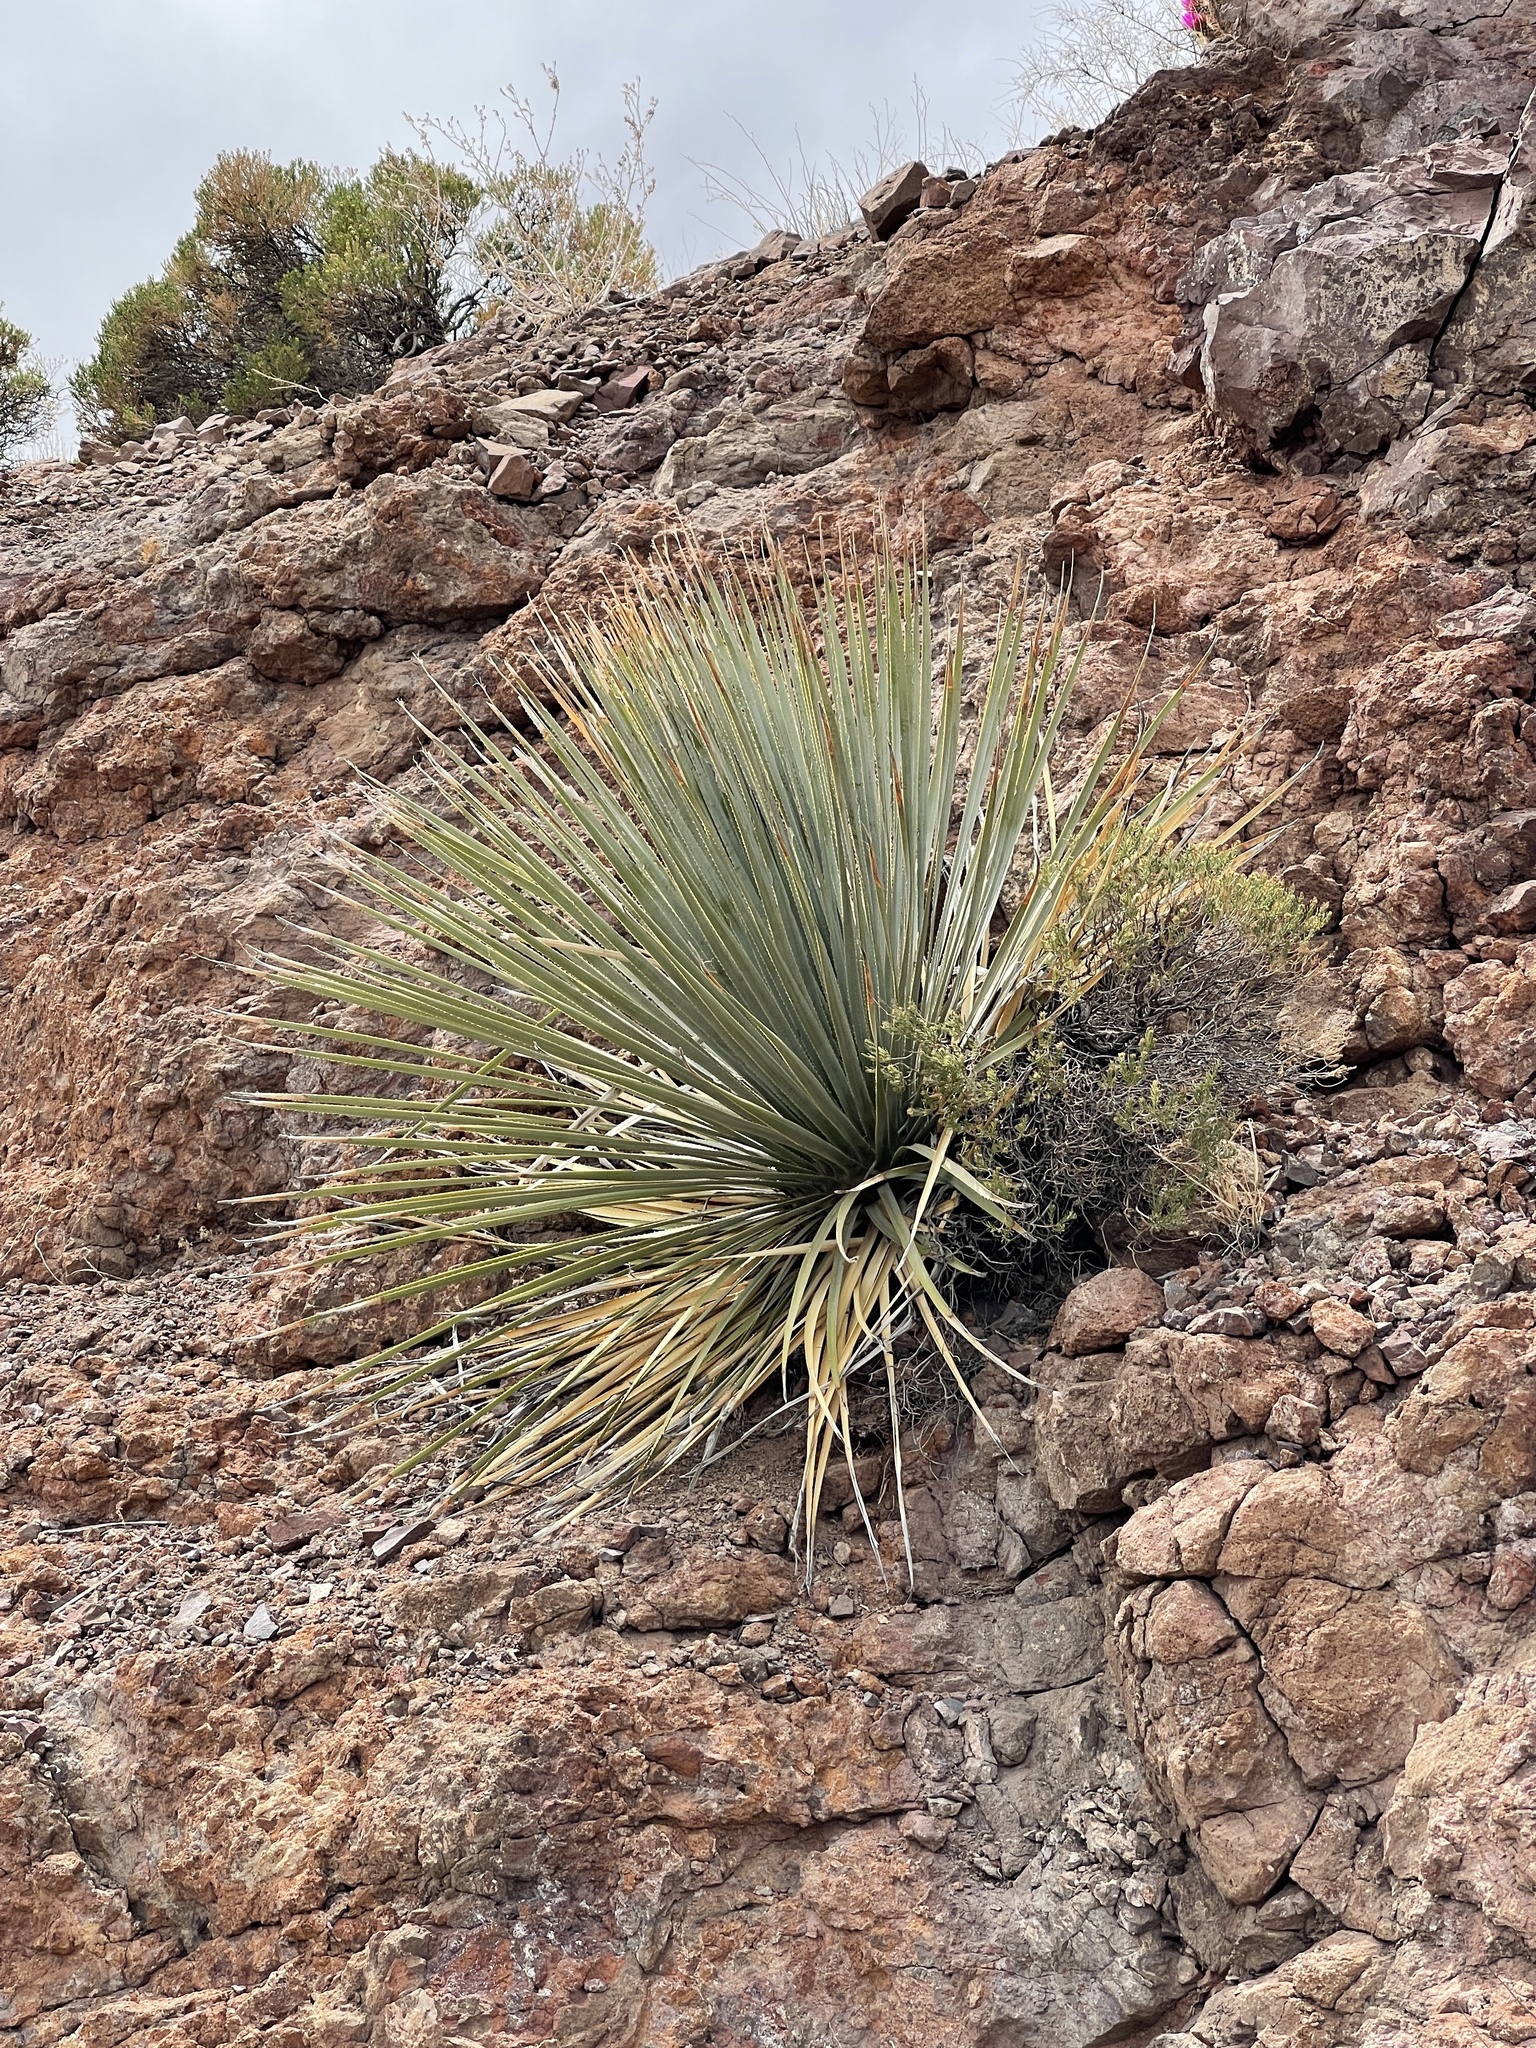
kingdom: Plantae
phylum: Tracheophyta
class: Liliopsida
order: Asparagales
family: Asparagaceae
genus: Dasylirion
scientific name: Dasylirion wheeleri
